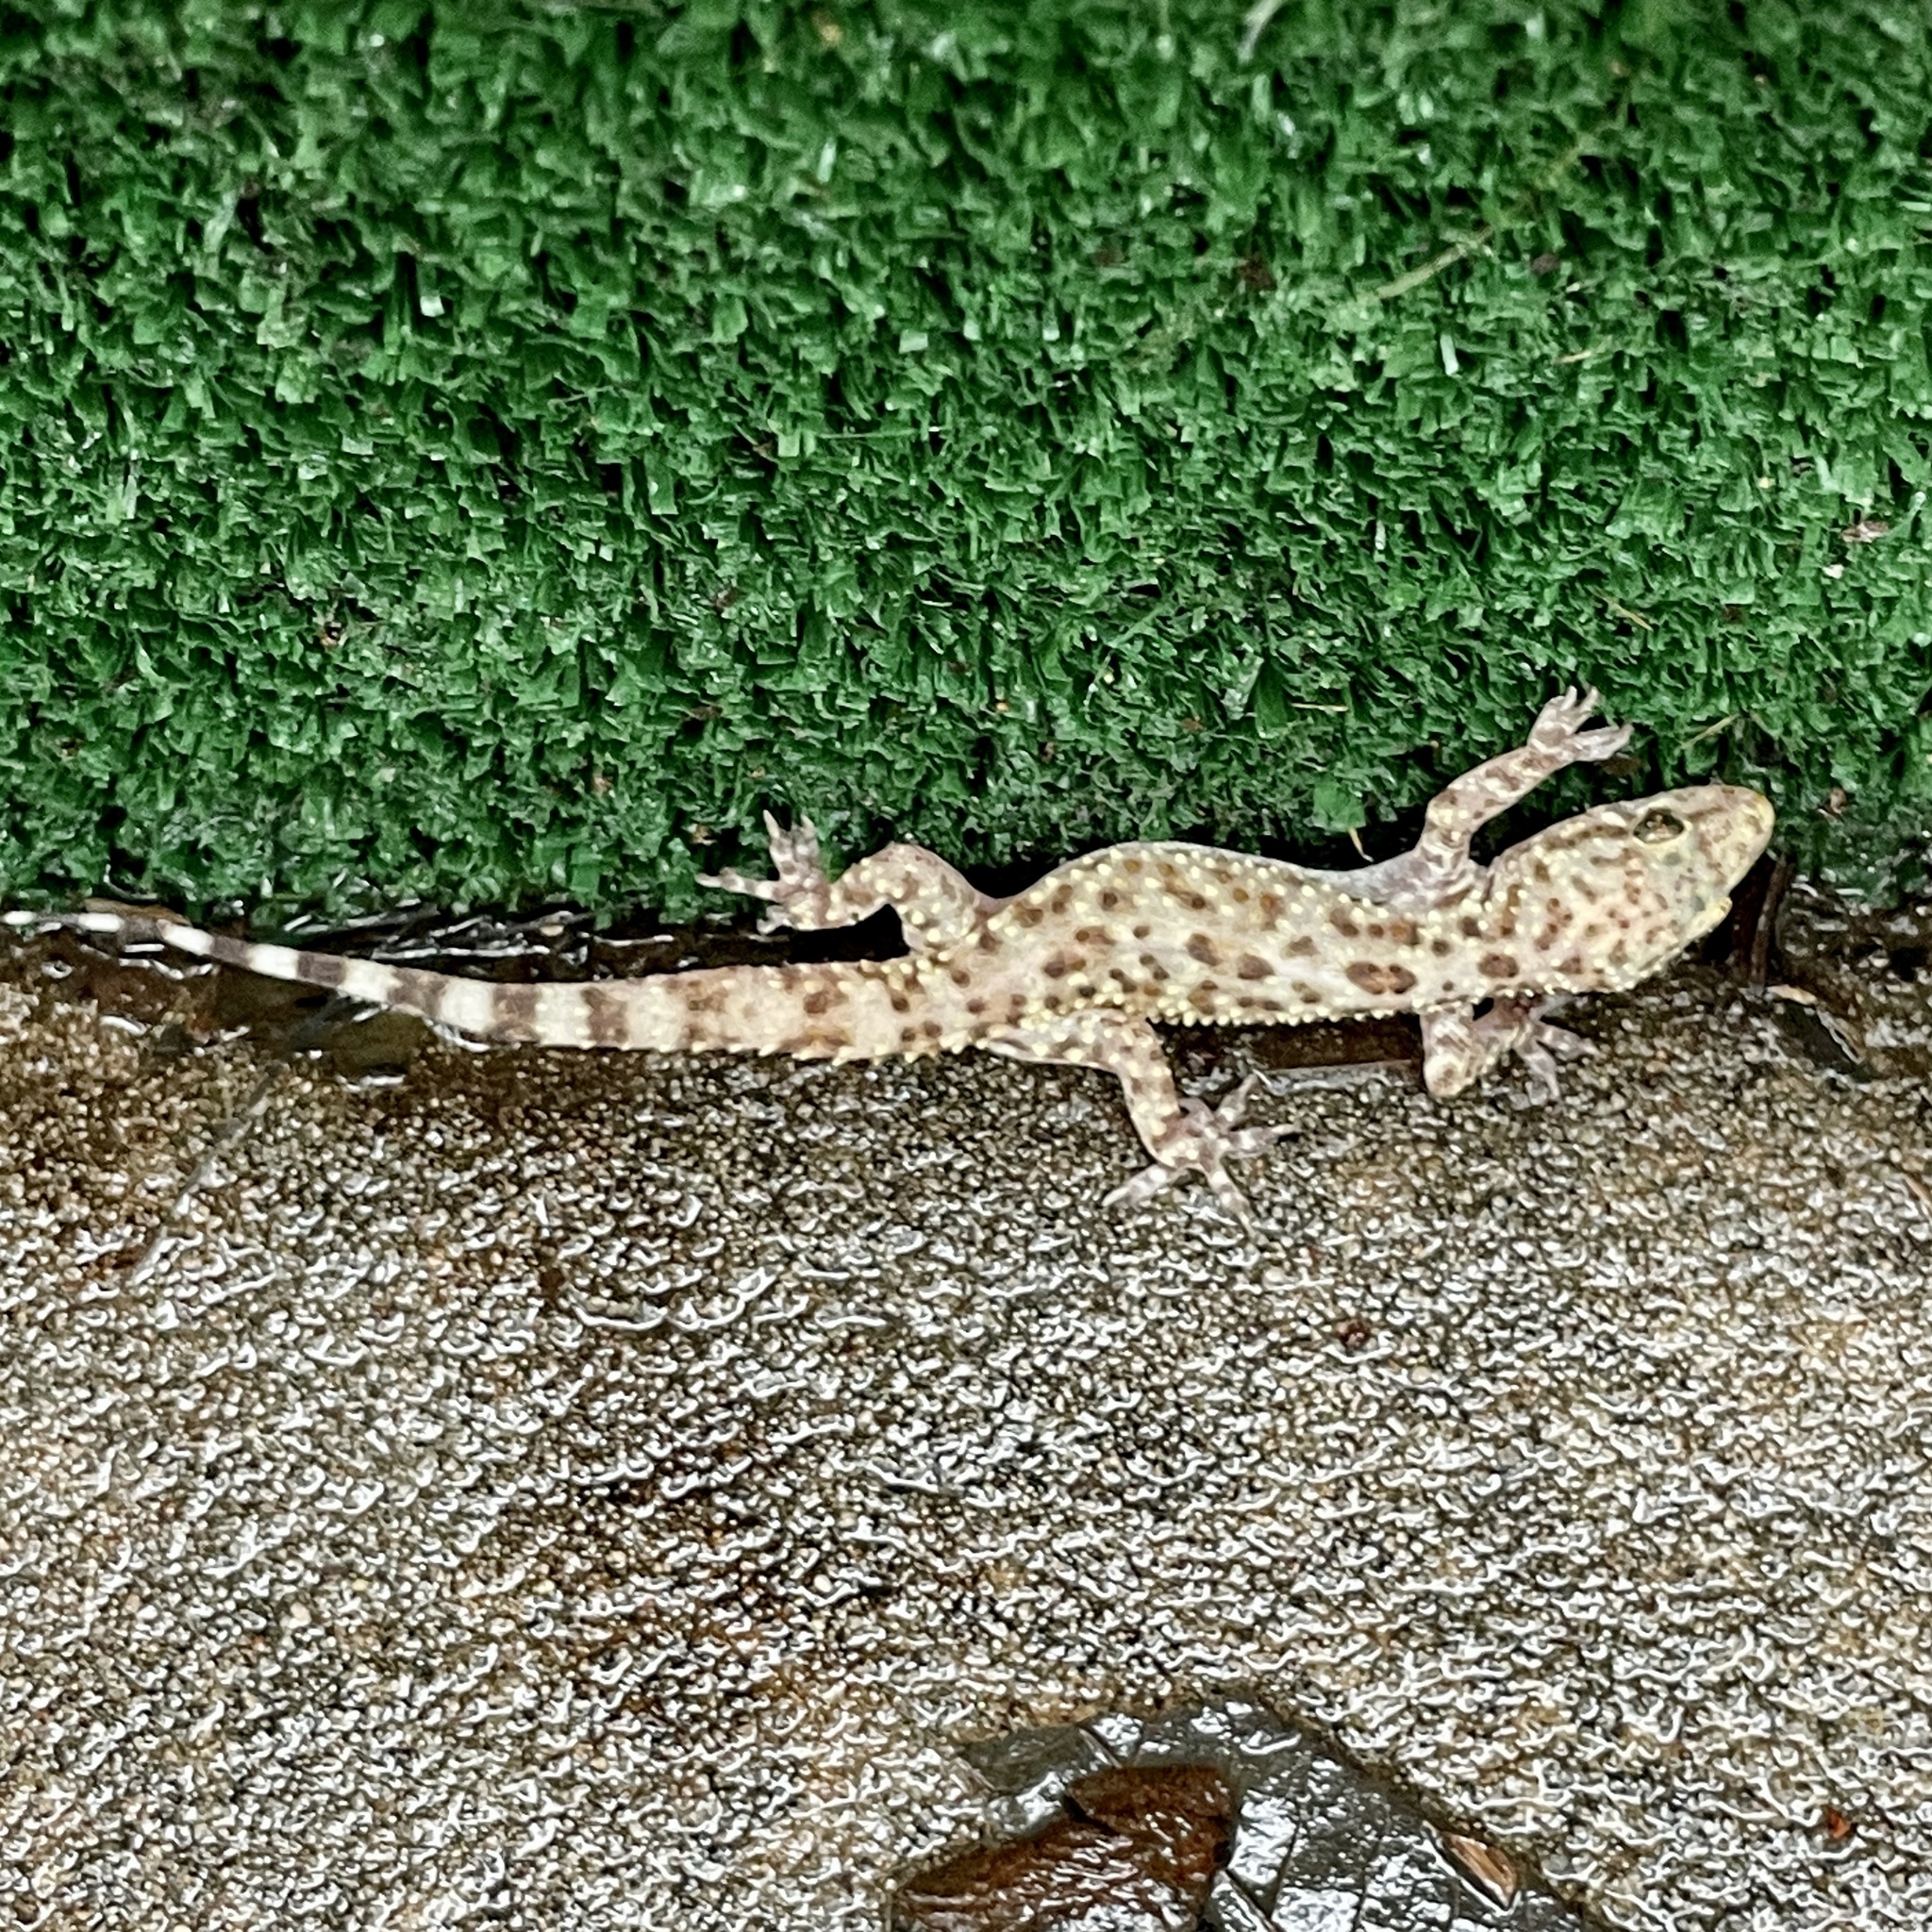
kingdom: Animalia
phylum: Chordata
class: Squamata
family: Gekkonidae
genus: Hemidactylus
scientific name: Hemidactylus turcicus
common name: Turkish gecko
